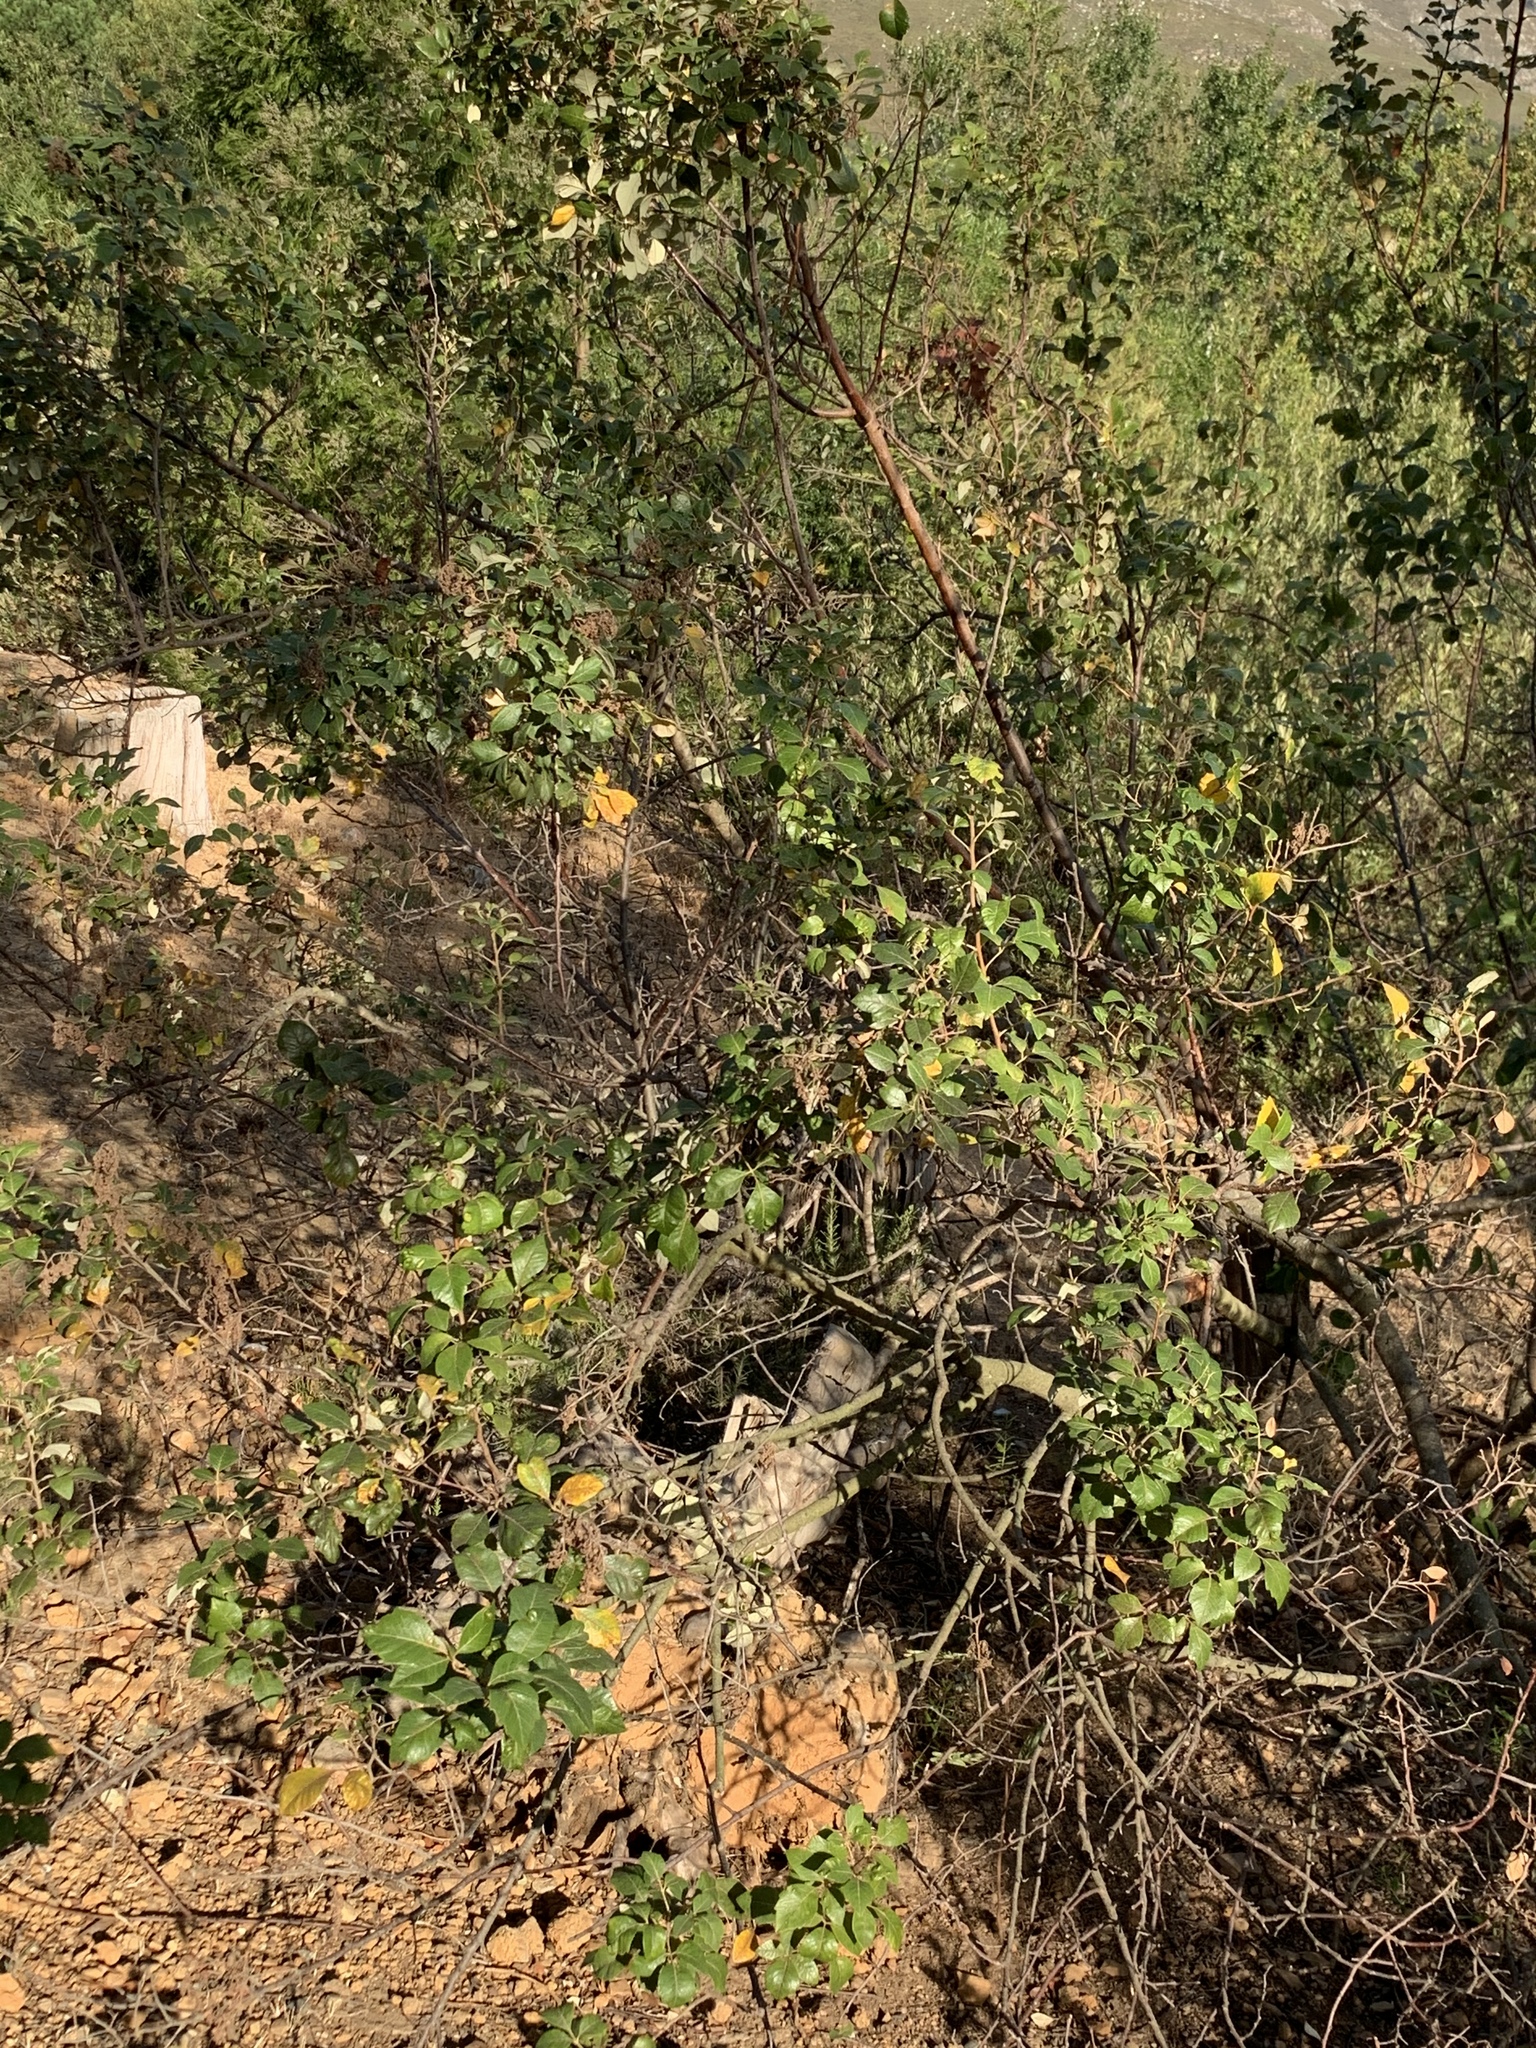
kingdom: Plantae
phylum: Tracheophyta
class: Magnoliopsida
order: Sapindales
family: Anacardiaceae
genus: Searsia
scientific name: Searsia tomentosa
